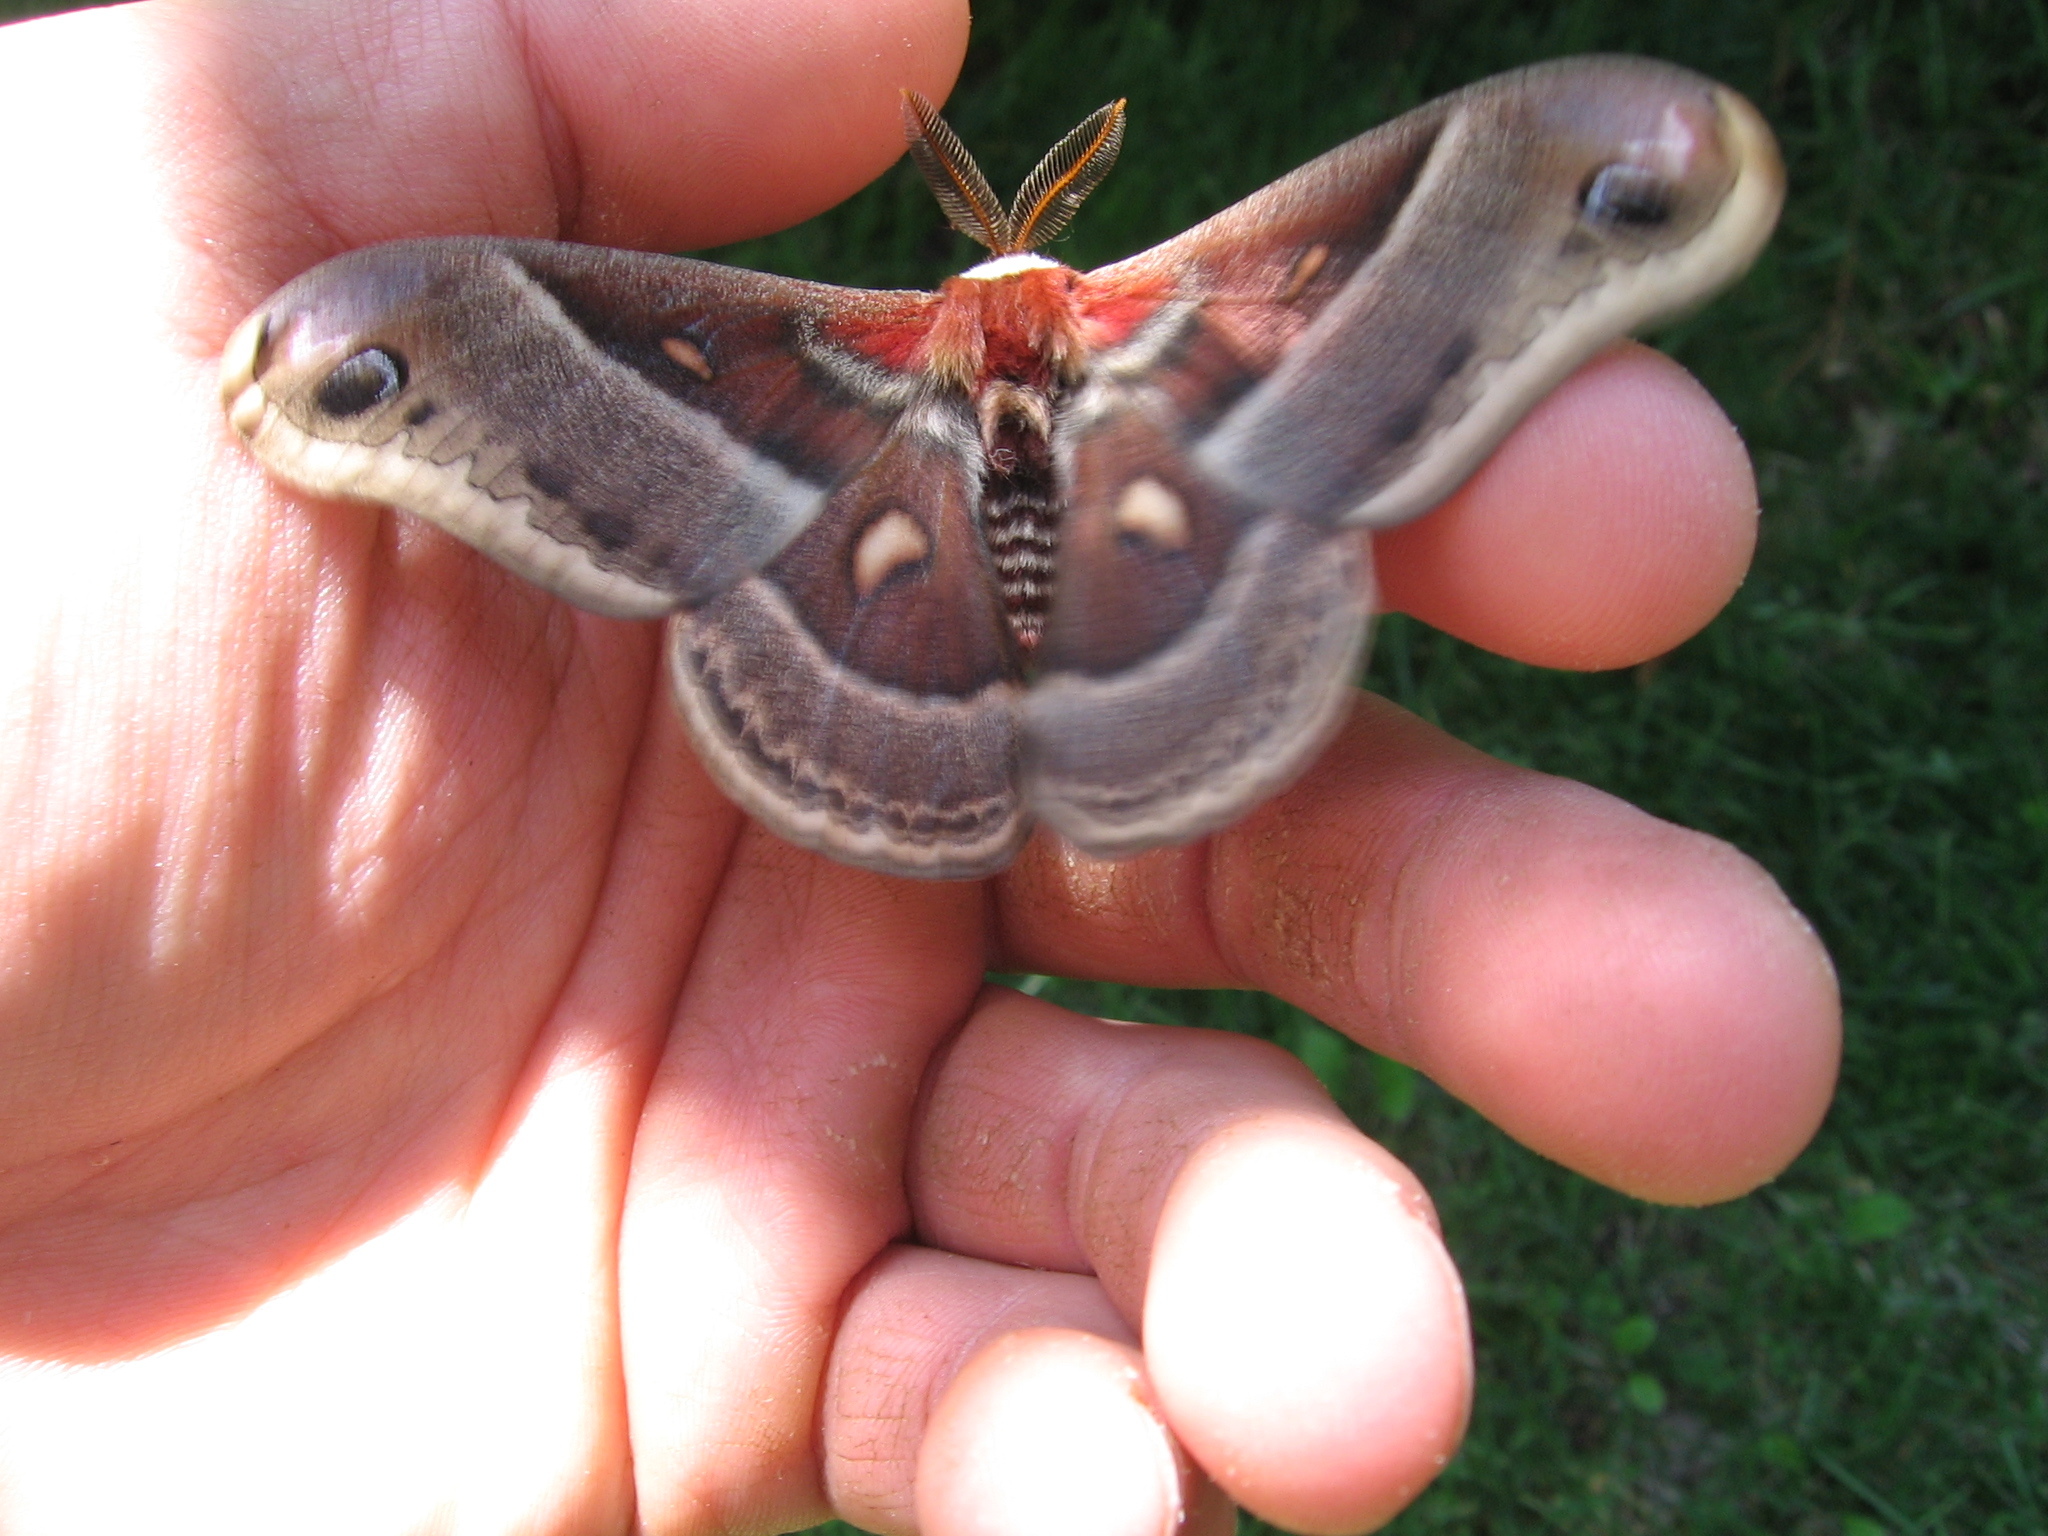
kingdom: Animalia
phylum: Arthropoda
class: Insecta
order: Lepidoptera
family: Saturniidae
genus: Hyalophora
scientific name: Hyalophora columbia
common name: Columbia silkmoth
